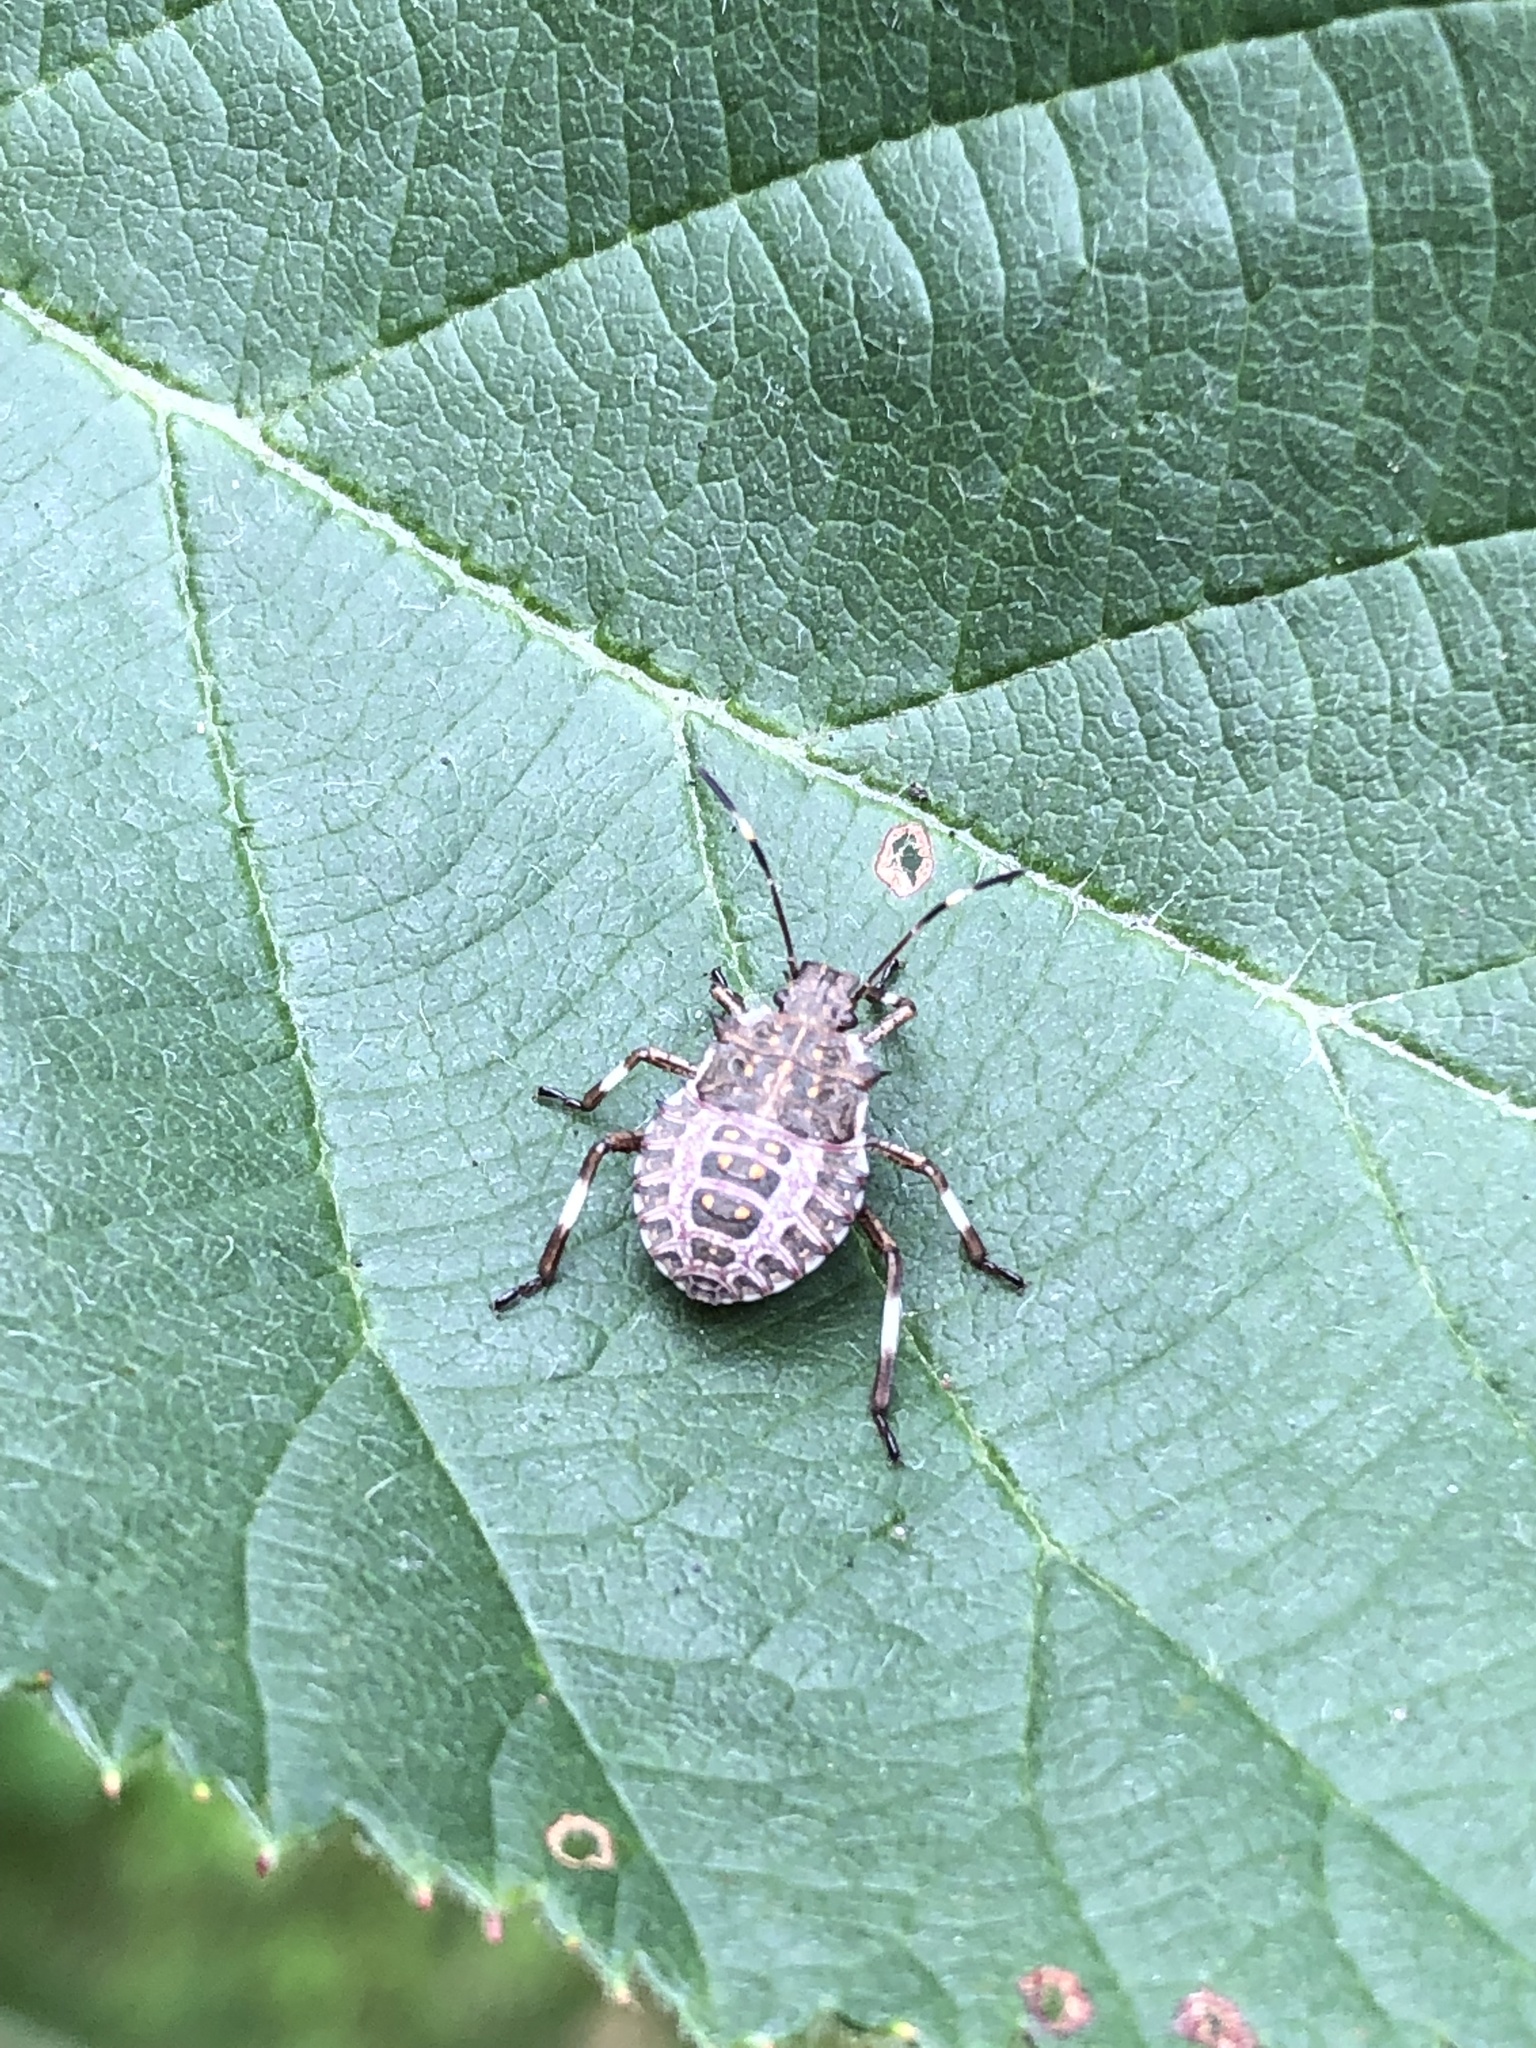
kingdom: Animalia
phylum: Arthropoda
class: Insecta
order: Hemiptera
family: Pentatomidae
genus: Halyomorpha
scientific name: Halyomorpha halys
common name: Brown marmorated stink bug
